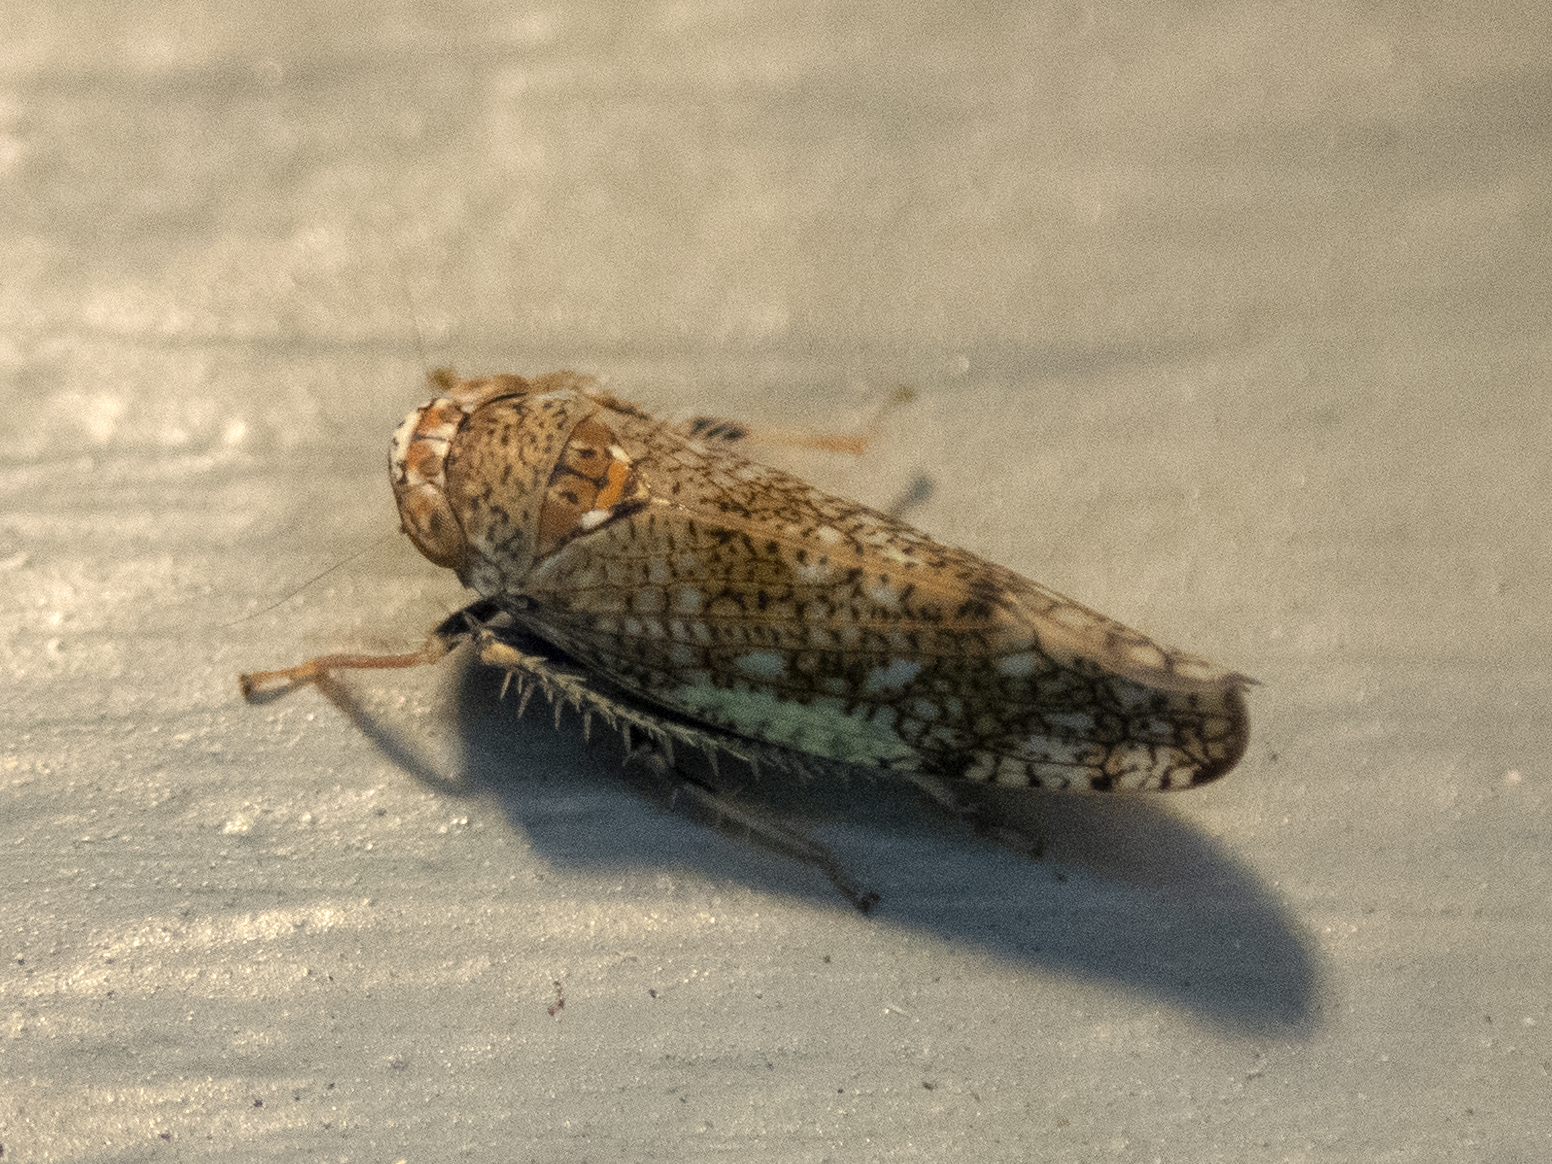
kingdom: Animalia
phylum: Arthropoda
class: Insecta
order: Hemiptera
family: Cicadellidae
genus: Orientus
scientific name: Orientus ishidae
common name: Japanese leafhopper
